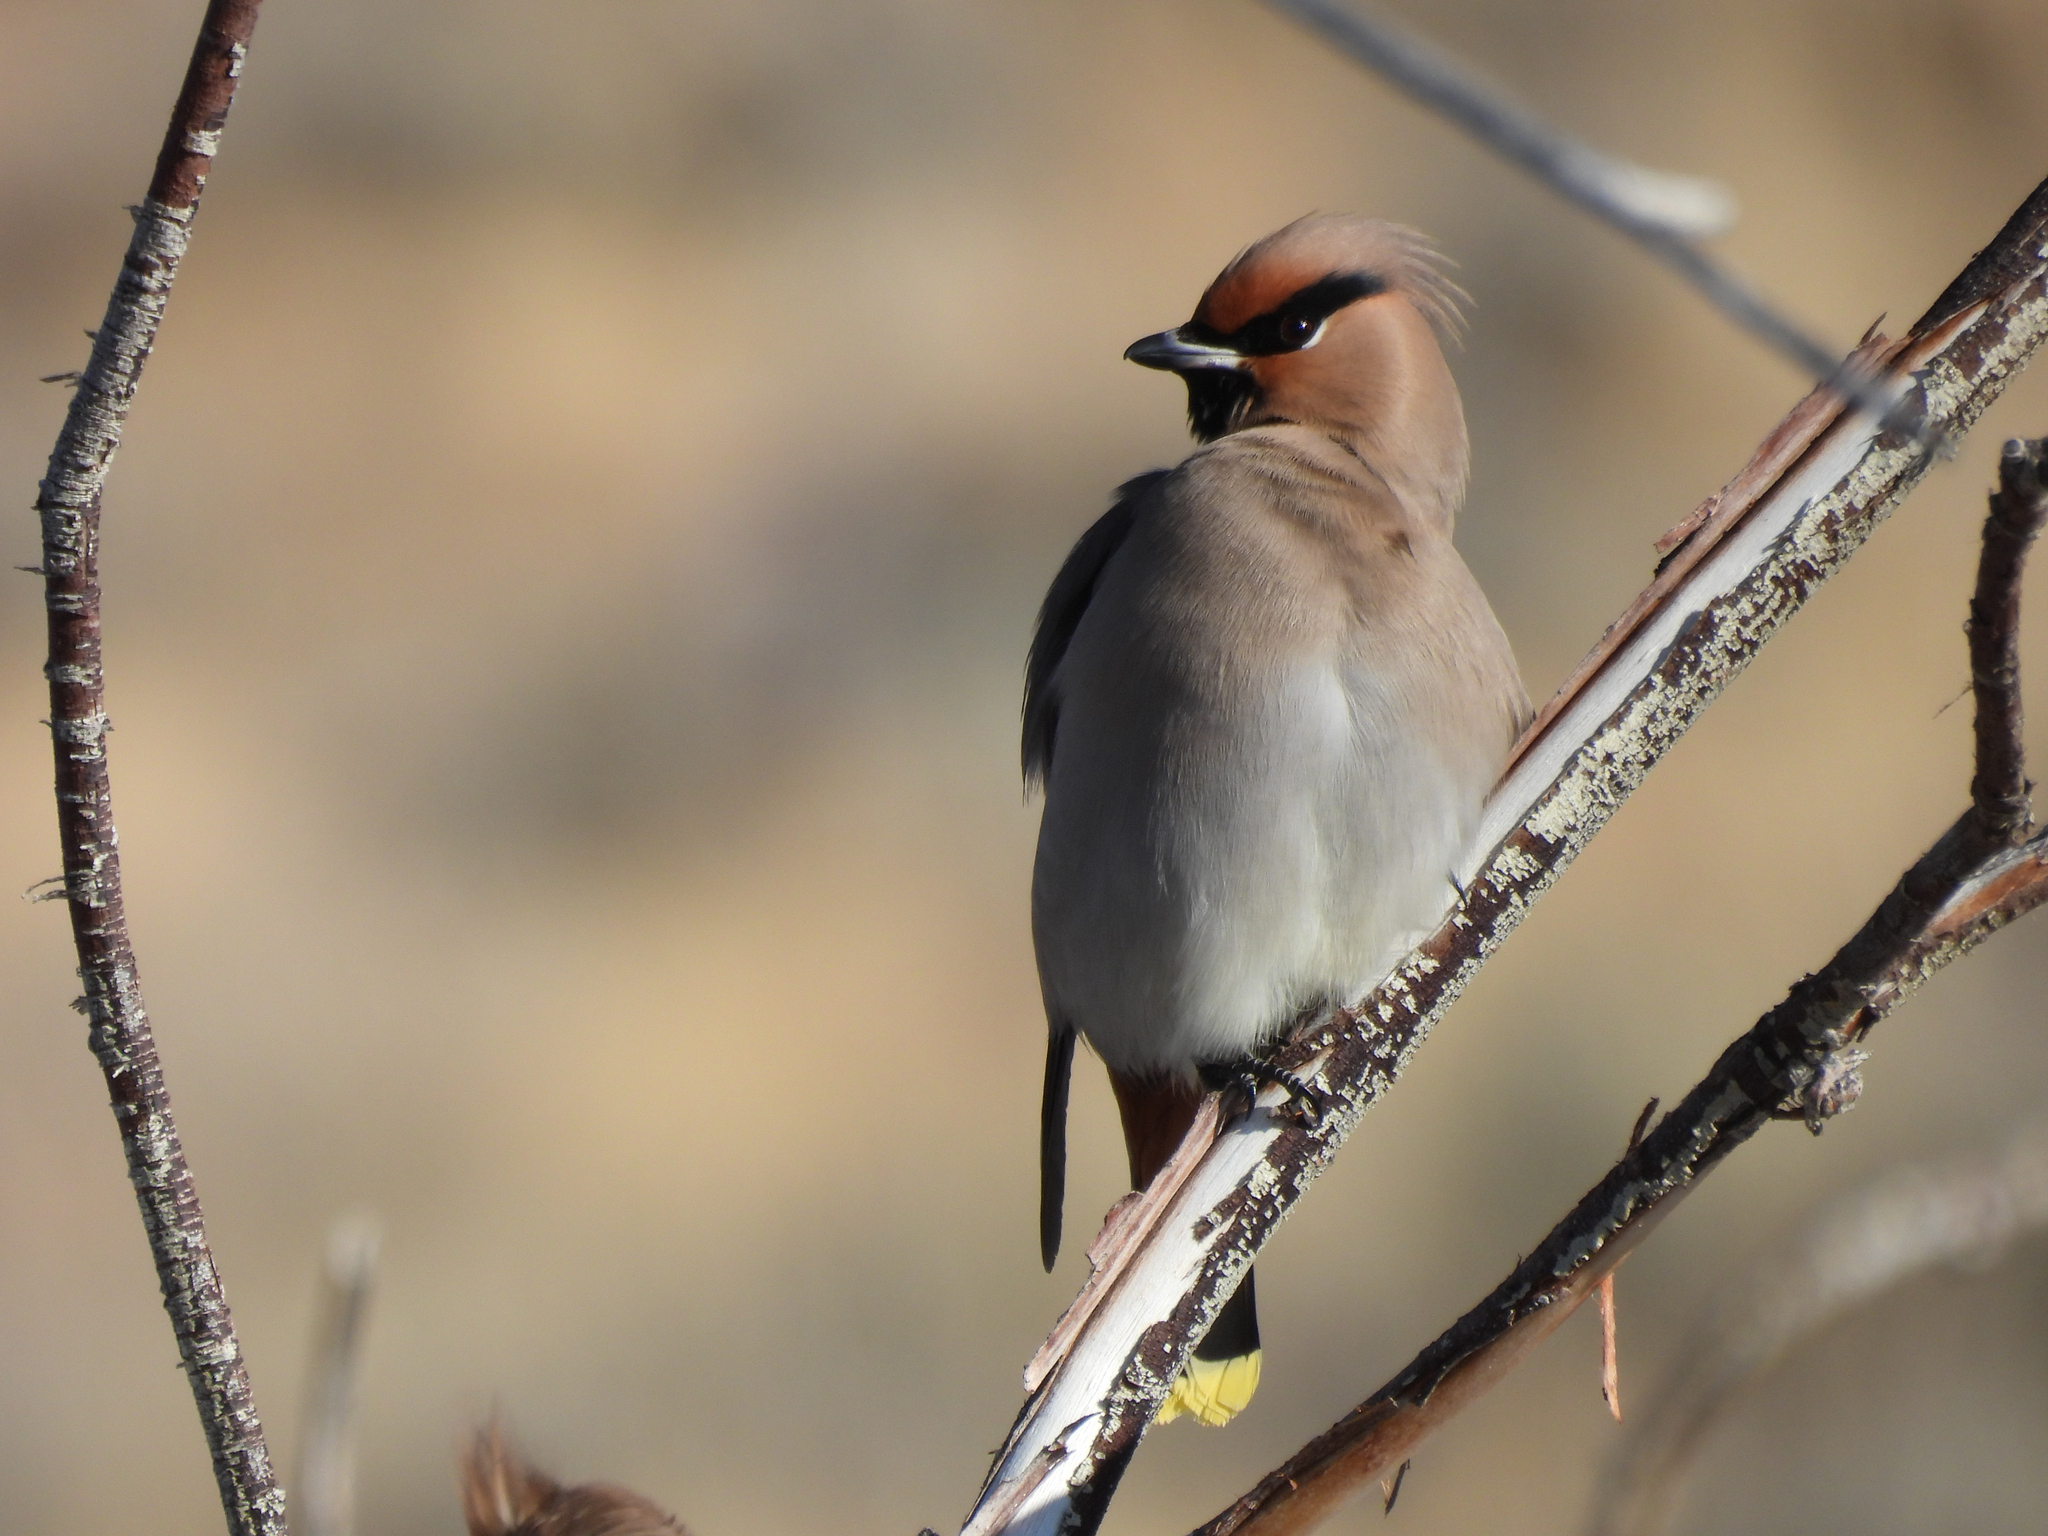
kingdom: Animalia
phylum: Chordata
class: Aves
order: Passeriformes
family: Bombycillidae
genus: Bombycilla
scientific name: Bombycilla garrulus
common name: Bohemian waxwing
